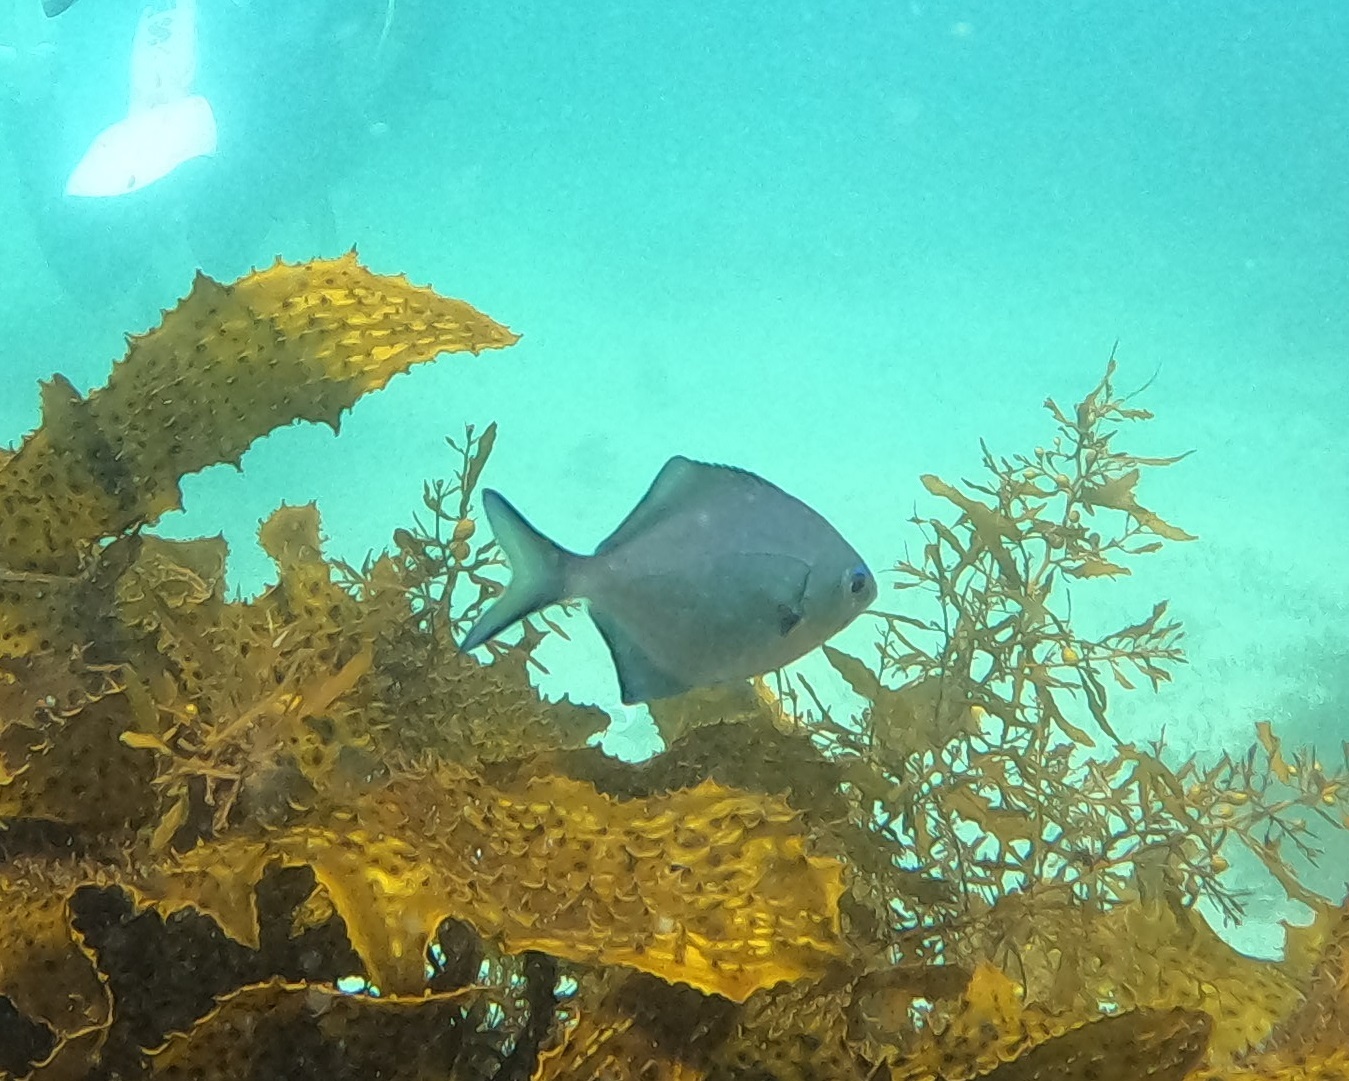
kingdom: Animalia
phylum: Chordata
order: Perciformes
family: Kyphosidae
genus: Scorpis
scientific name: Scorpis lineolata
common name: Sweep
